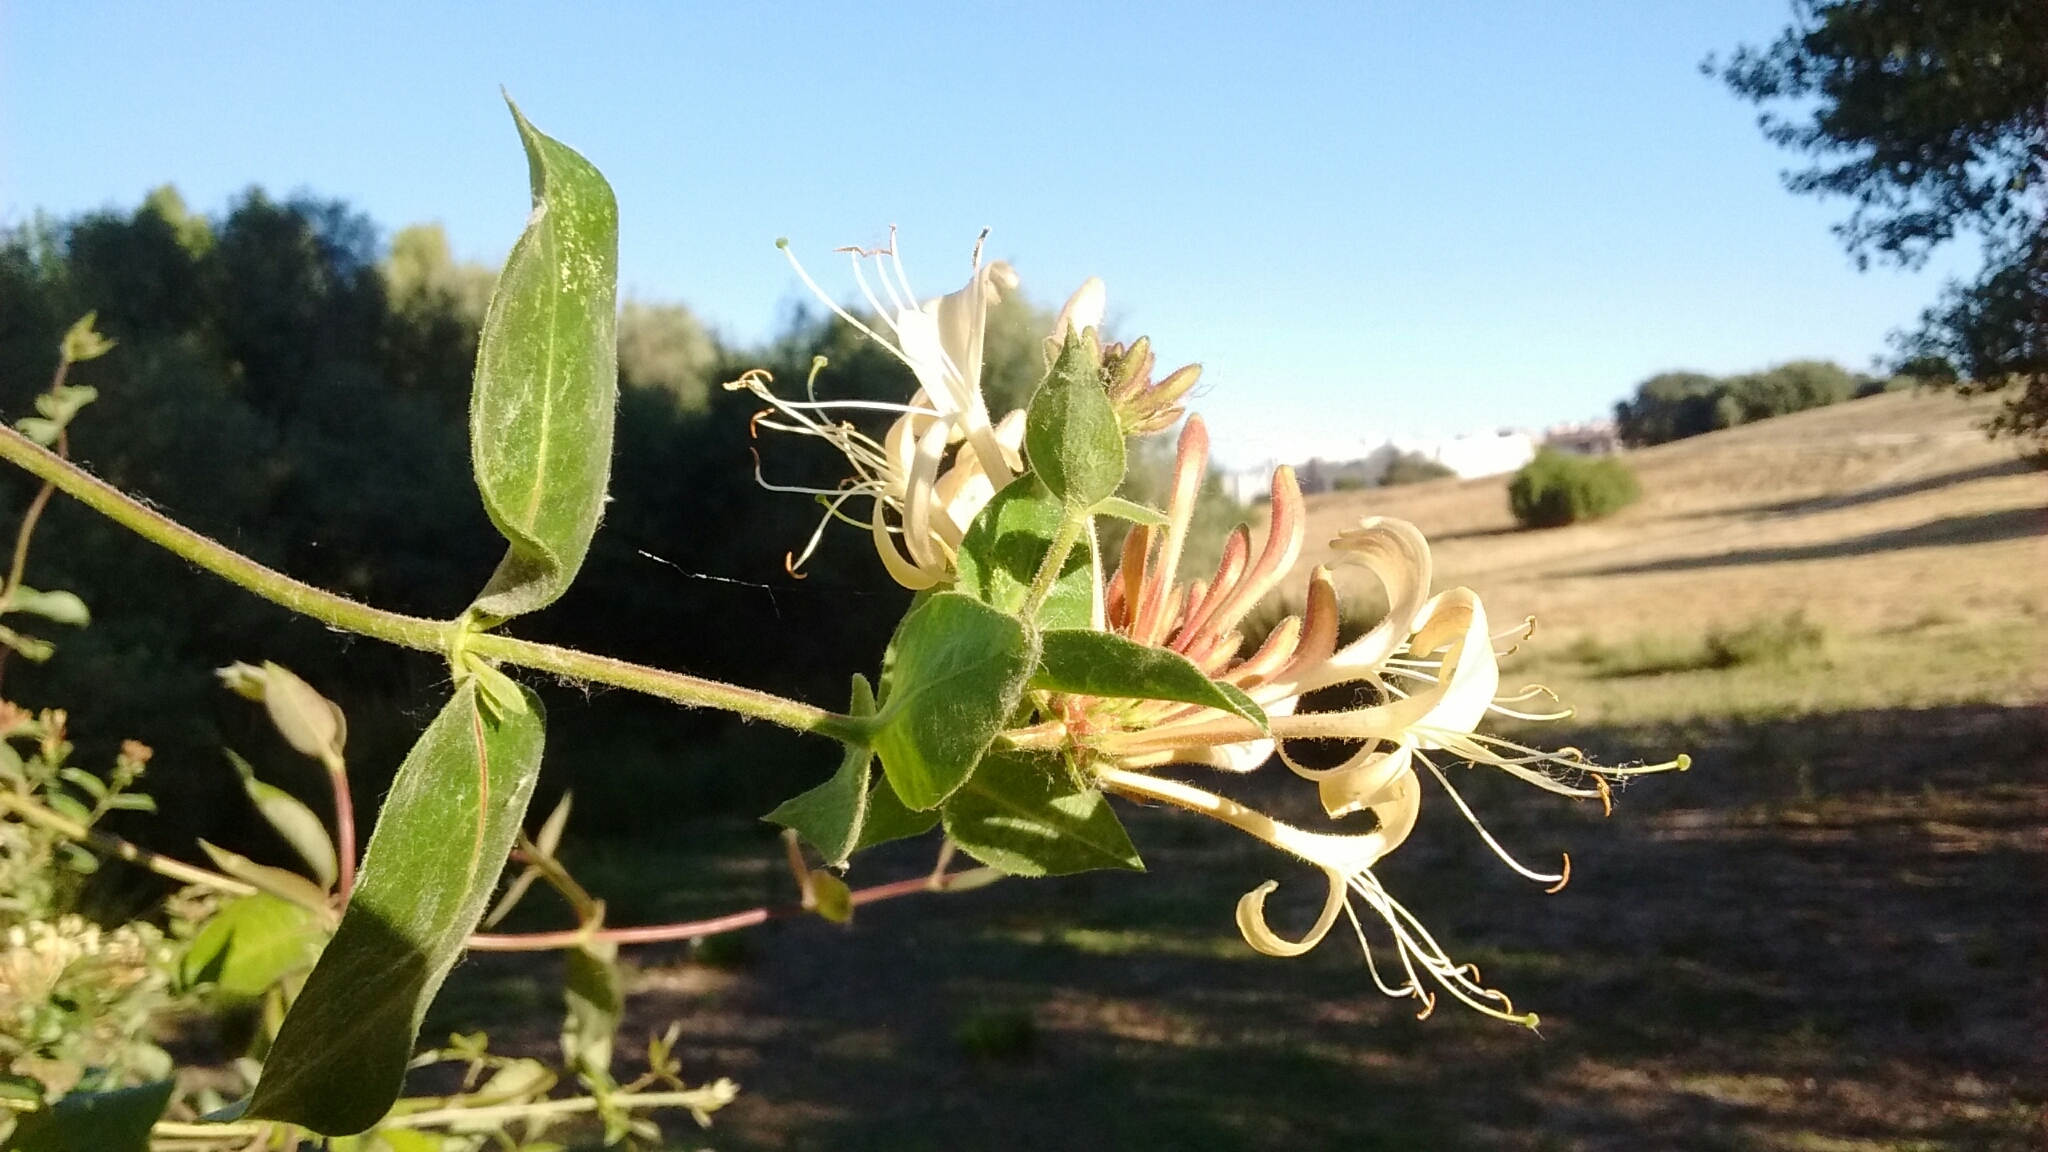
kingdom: Plantae
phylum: Tracheophyta
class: Magnoliopsida
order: Dipsacales
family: Caprifoliaceae
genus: Lonicera
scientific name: Lonicera periclymenum
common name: European honeysuckle
